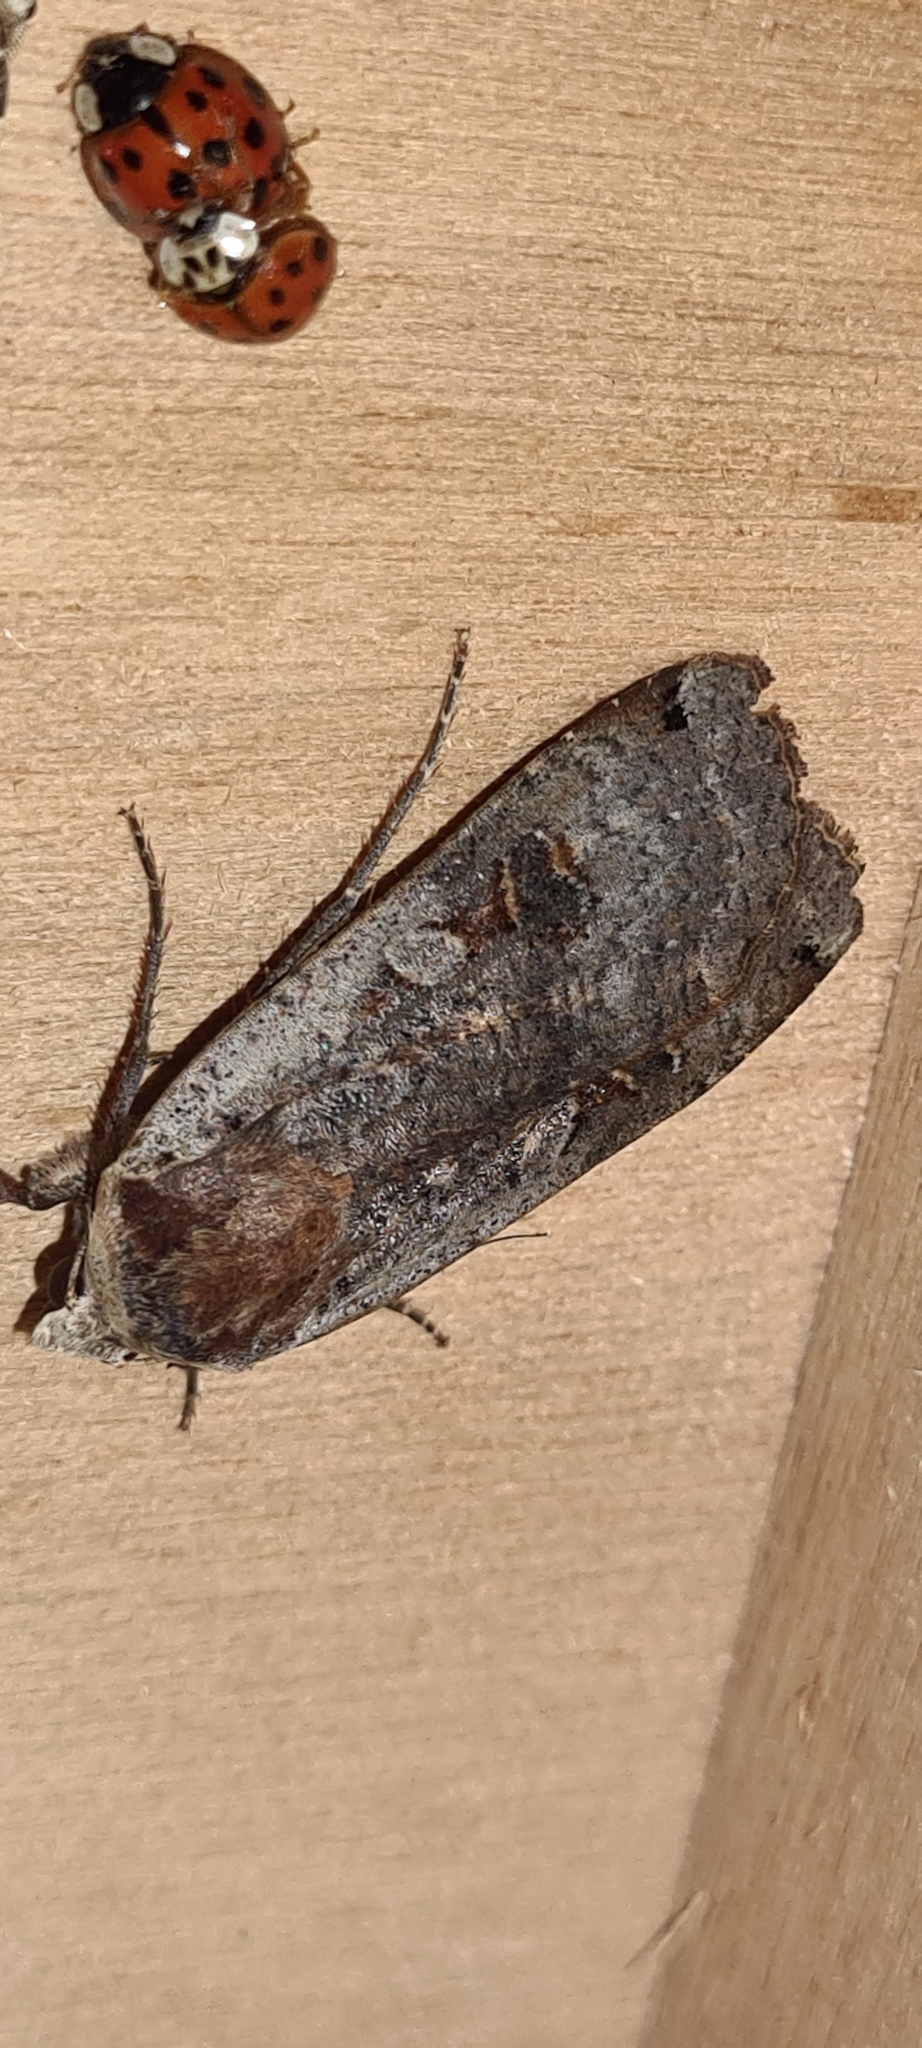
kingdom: Animalia
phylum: Arthropoda
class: Insecta
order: Lepidoptera
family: Noctuidae
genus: Noctua
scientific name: Noctua pronuba
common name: Large yellow underwing
